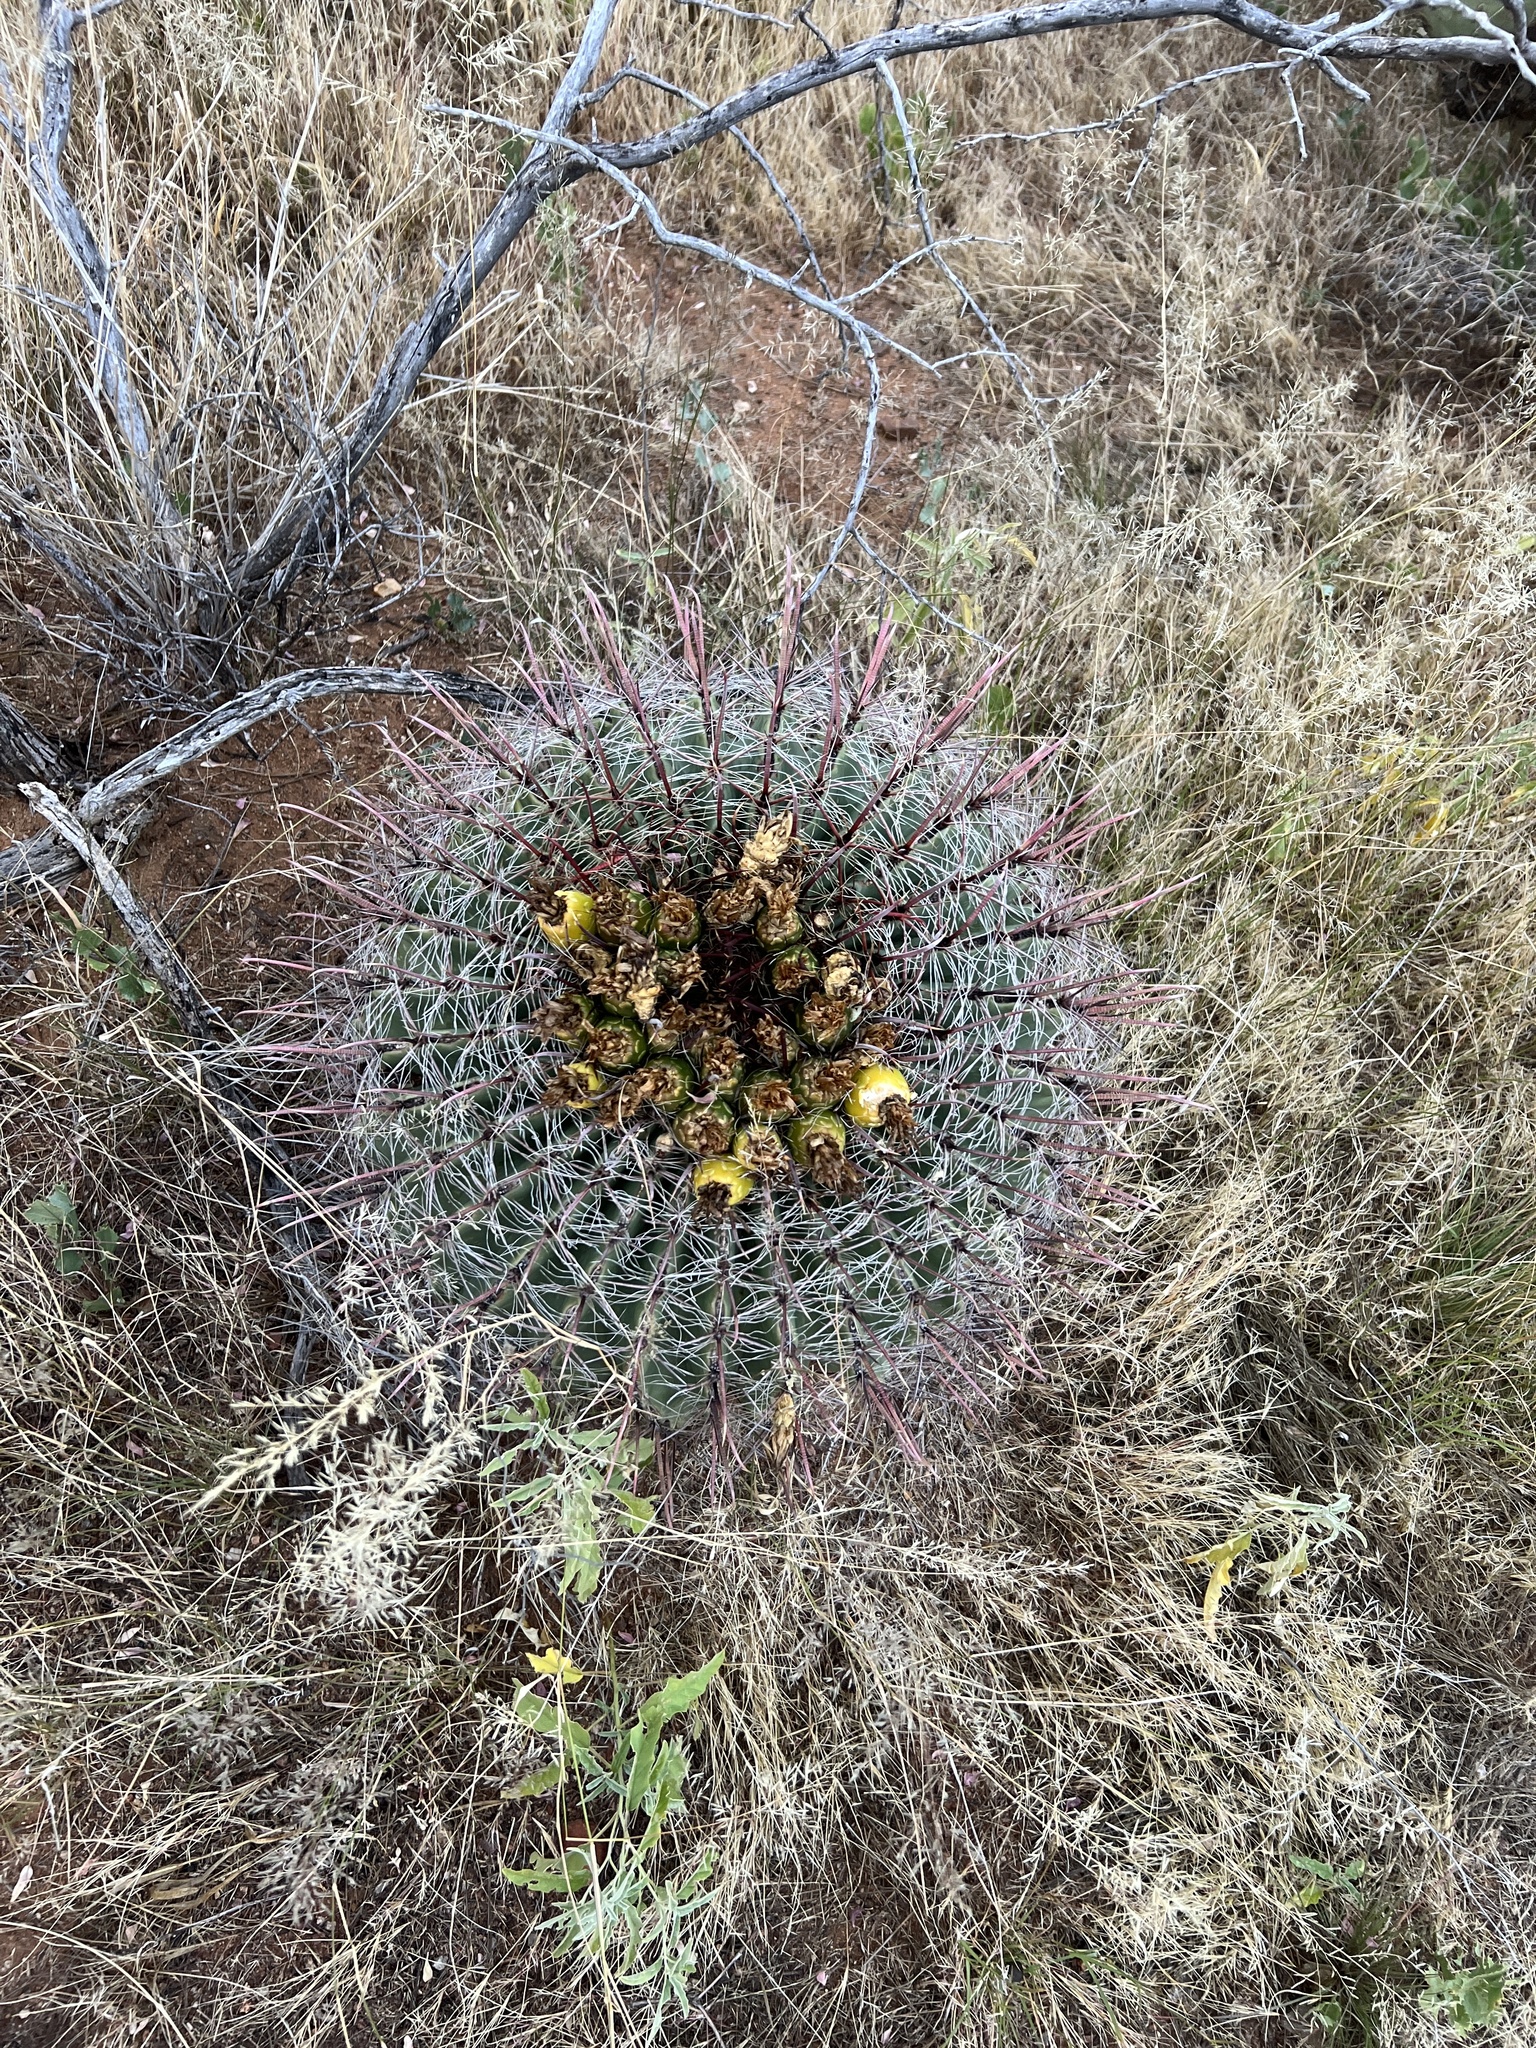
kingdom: Plantae
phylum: Tracheophyta
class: Magnoliopsida
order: Caryophyllales
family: Cactaceae
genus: Ferocactus
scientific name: Ferocactus wislizeni
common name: Candy barrel cactus
